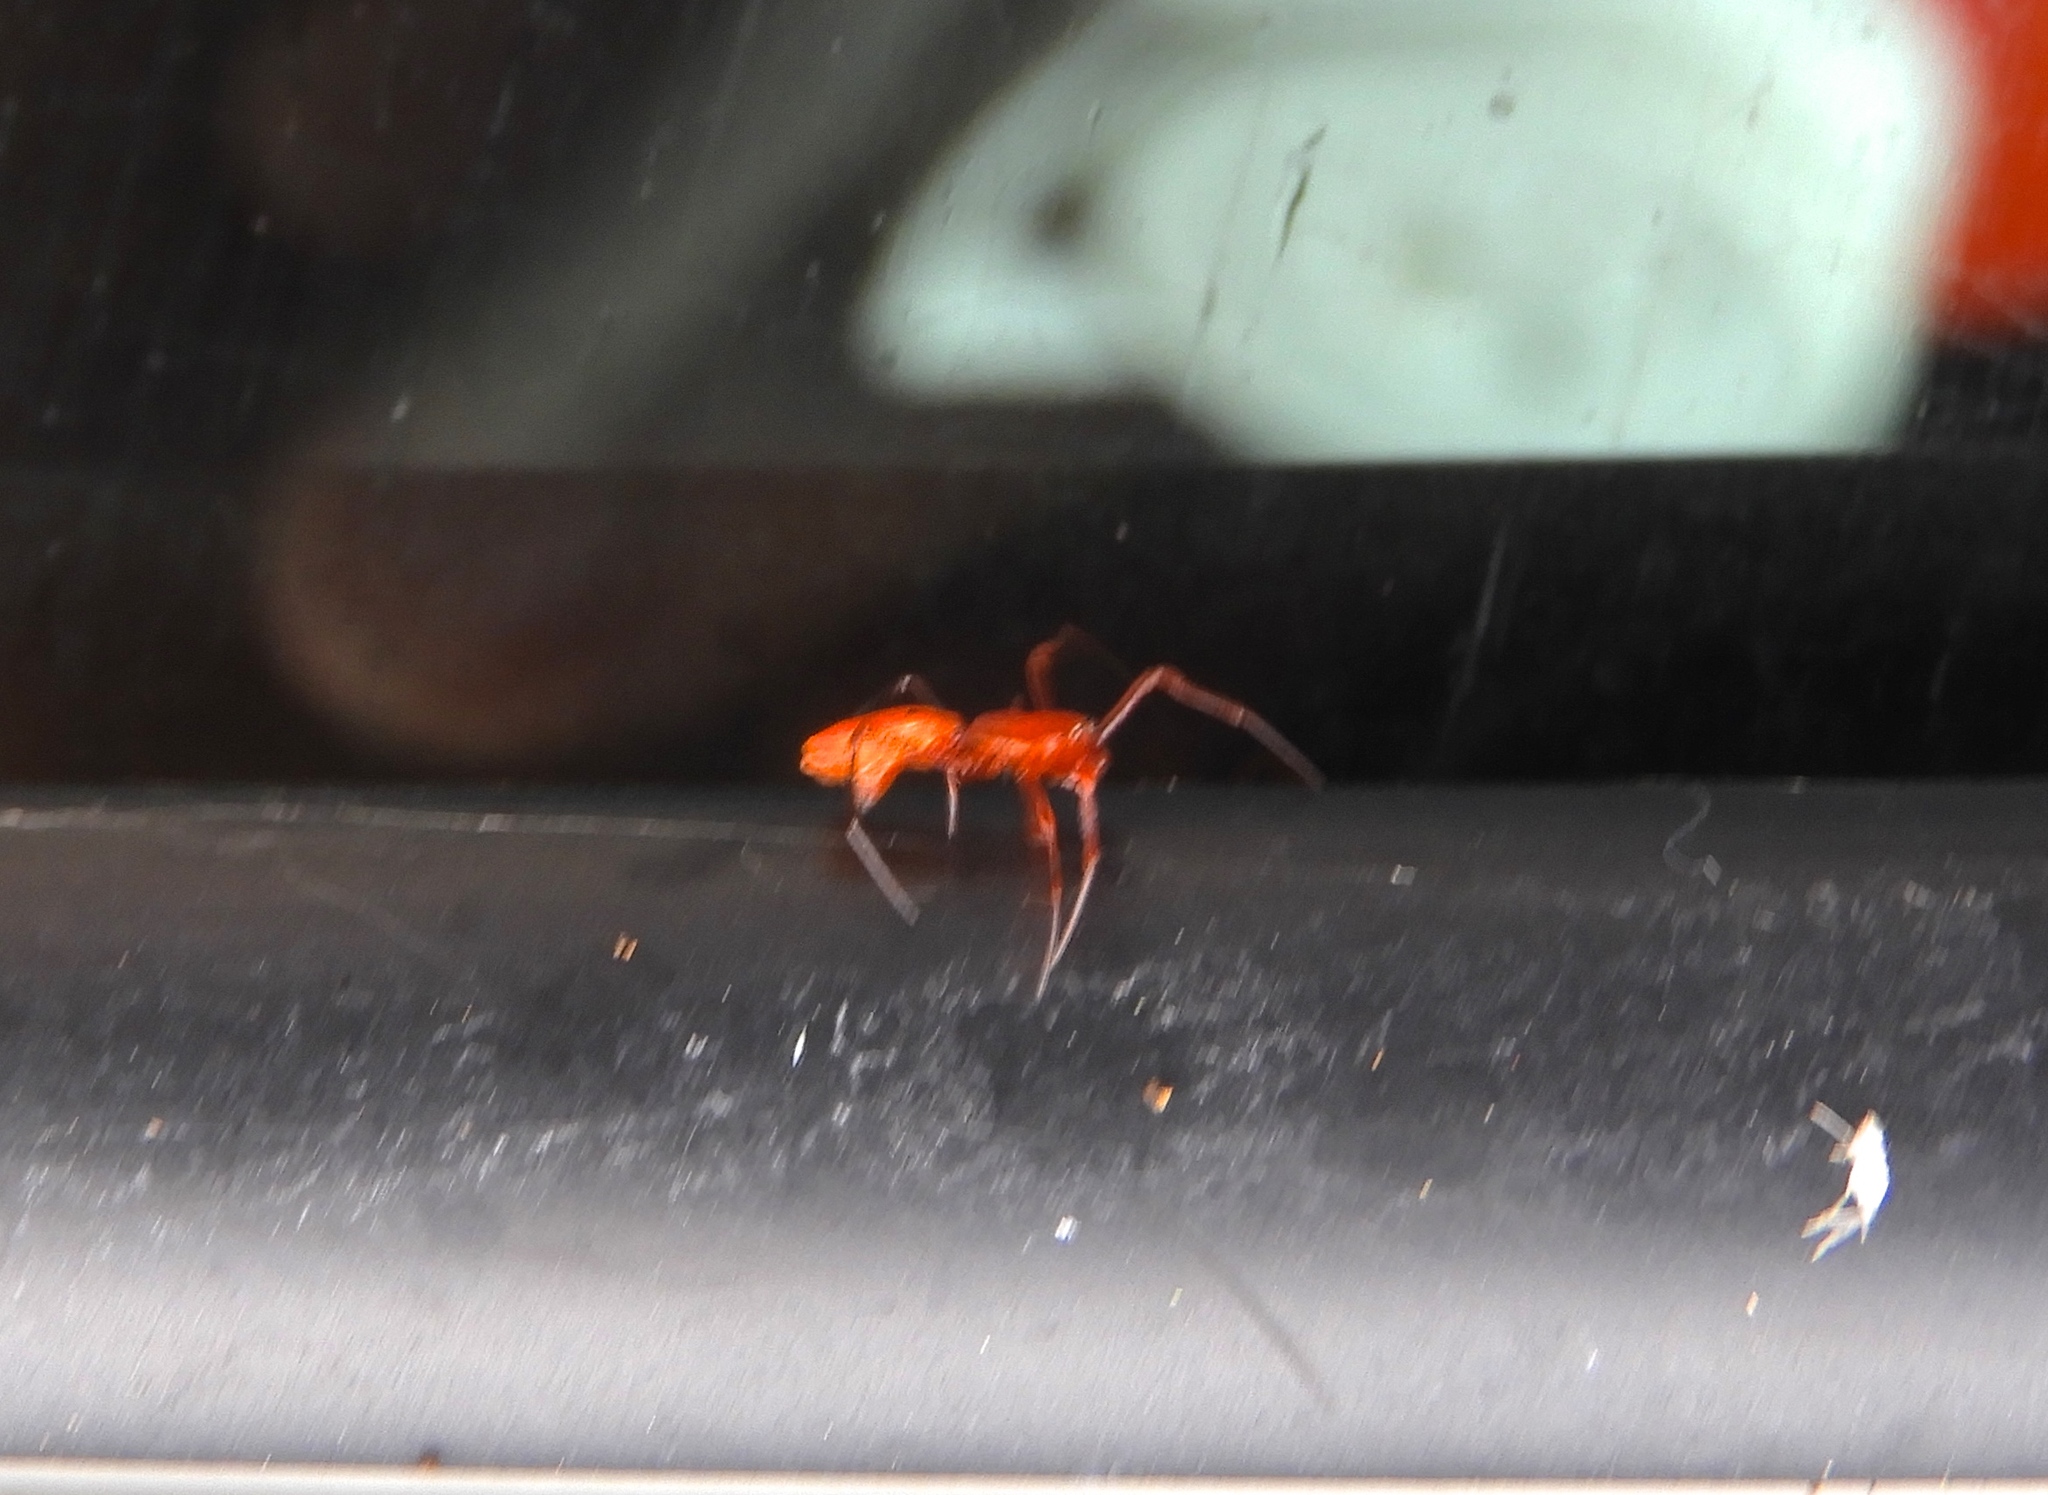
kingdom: Animalia
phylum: Arthropoda
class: Arachnida
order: Araneae
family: Araneidae
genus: Micrathena
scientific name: Micrathena sagittata
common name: Orb weavers
